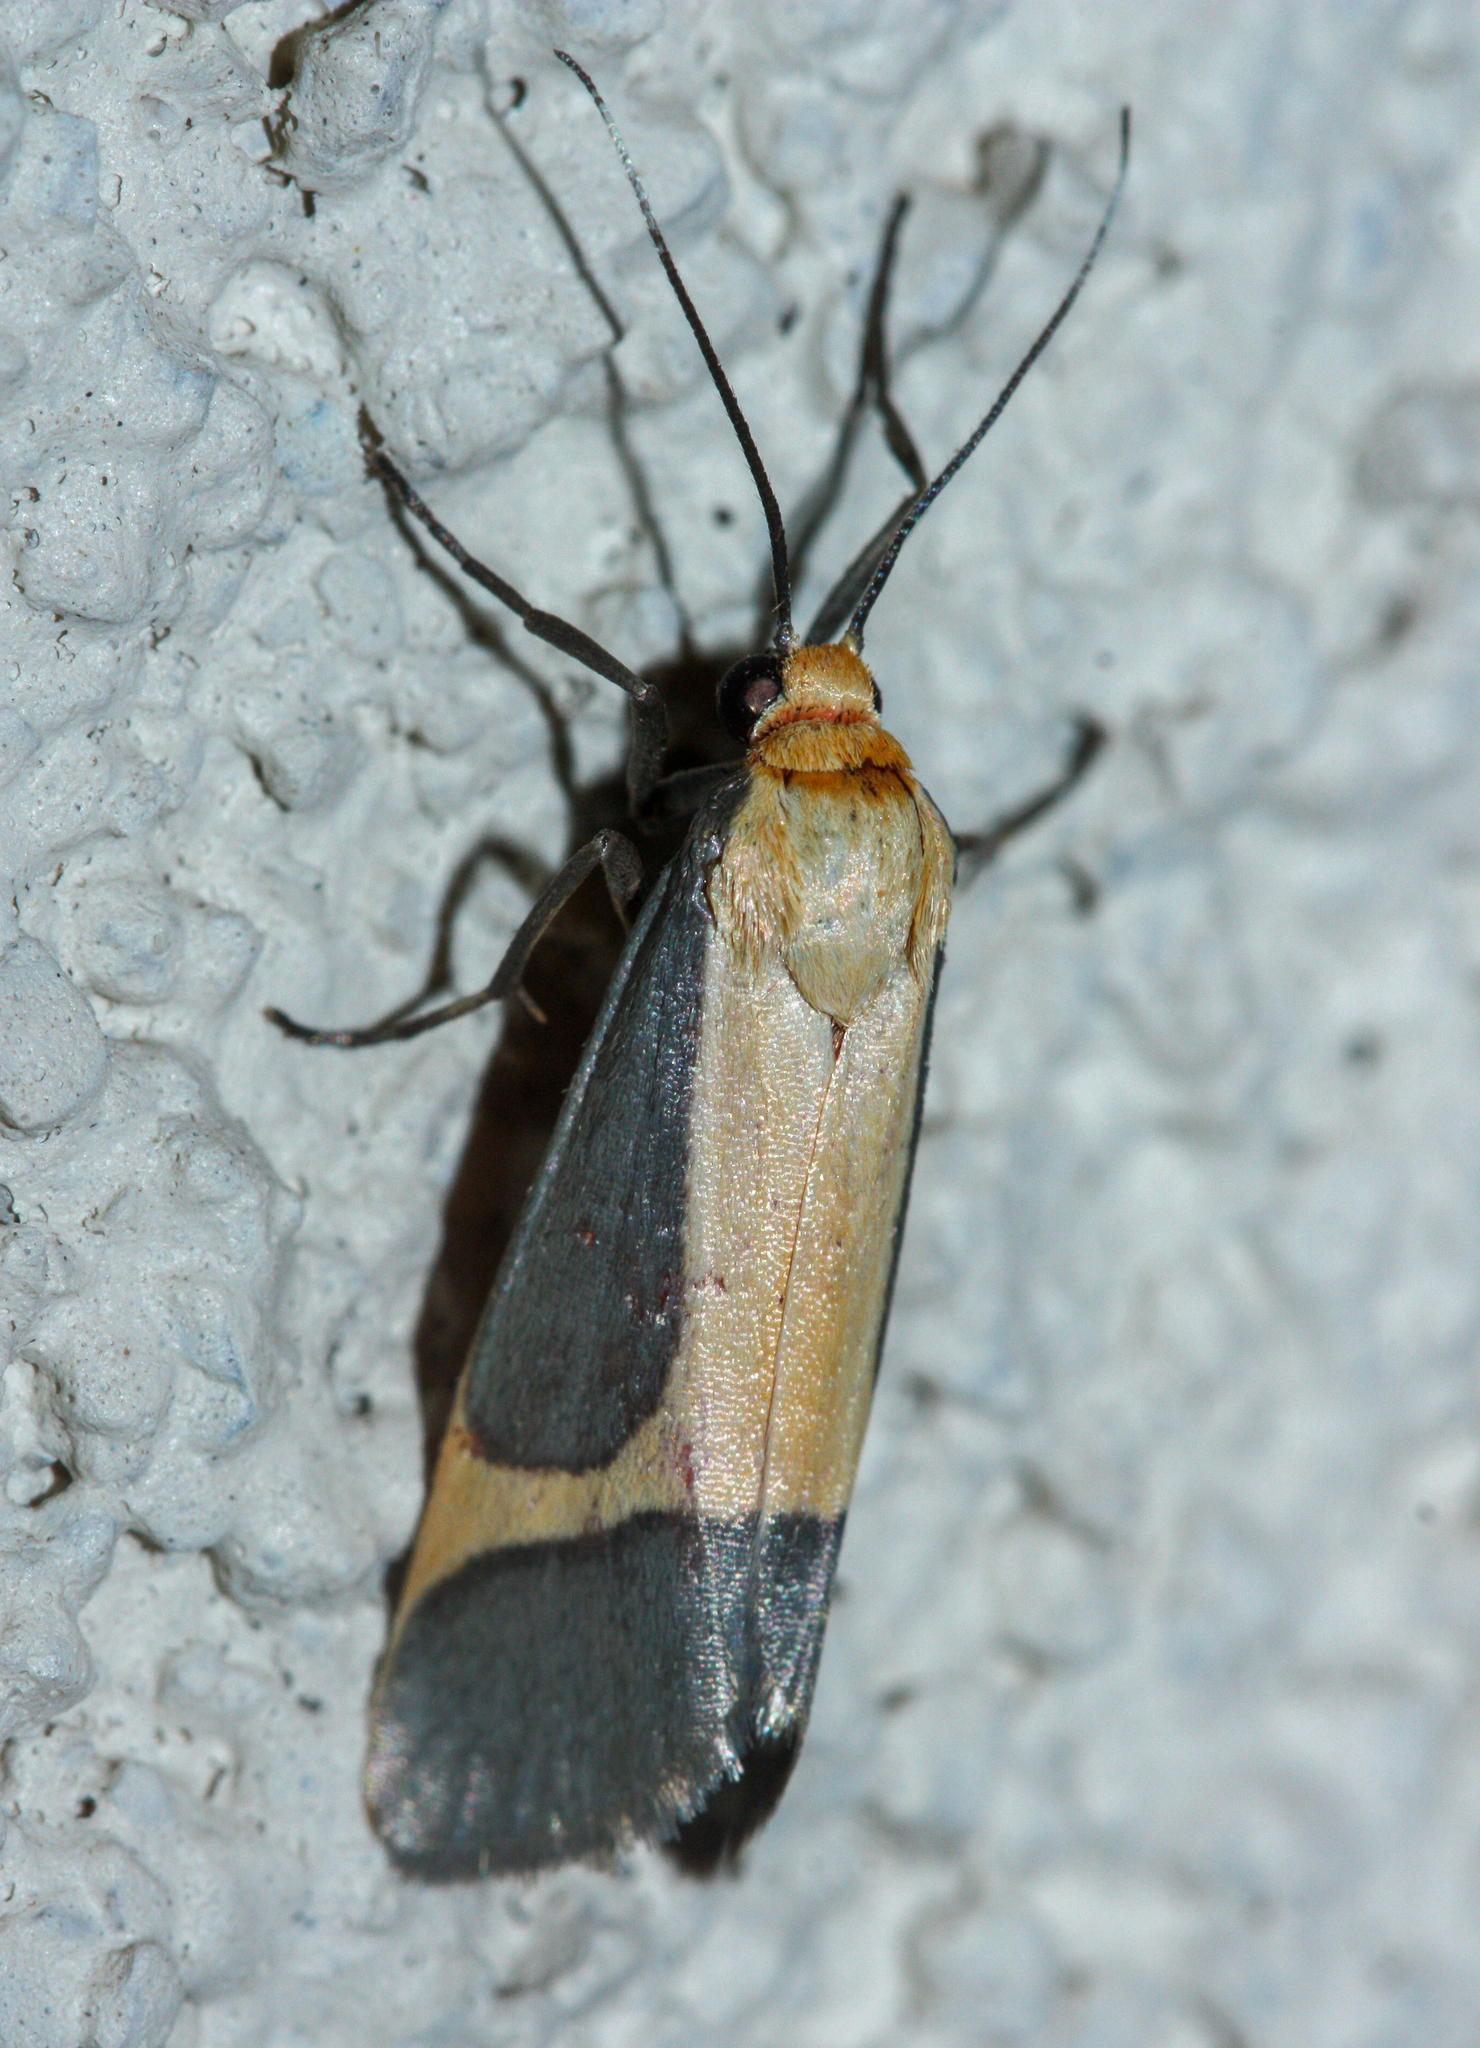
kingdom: Animalia
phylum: Arthropoda
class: Insecta
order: Lepidoptera
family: Erebidae
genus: Cisthene
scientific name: Cisthene angelus
